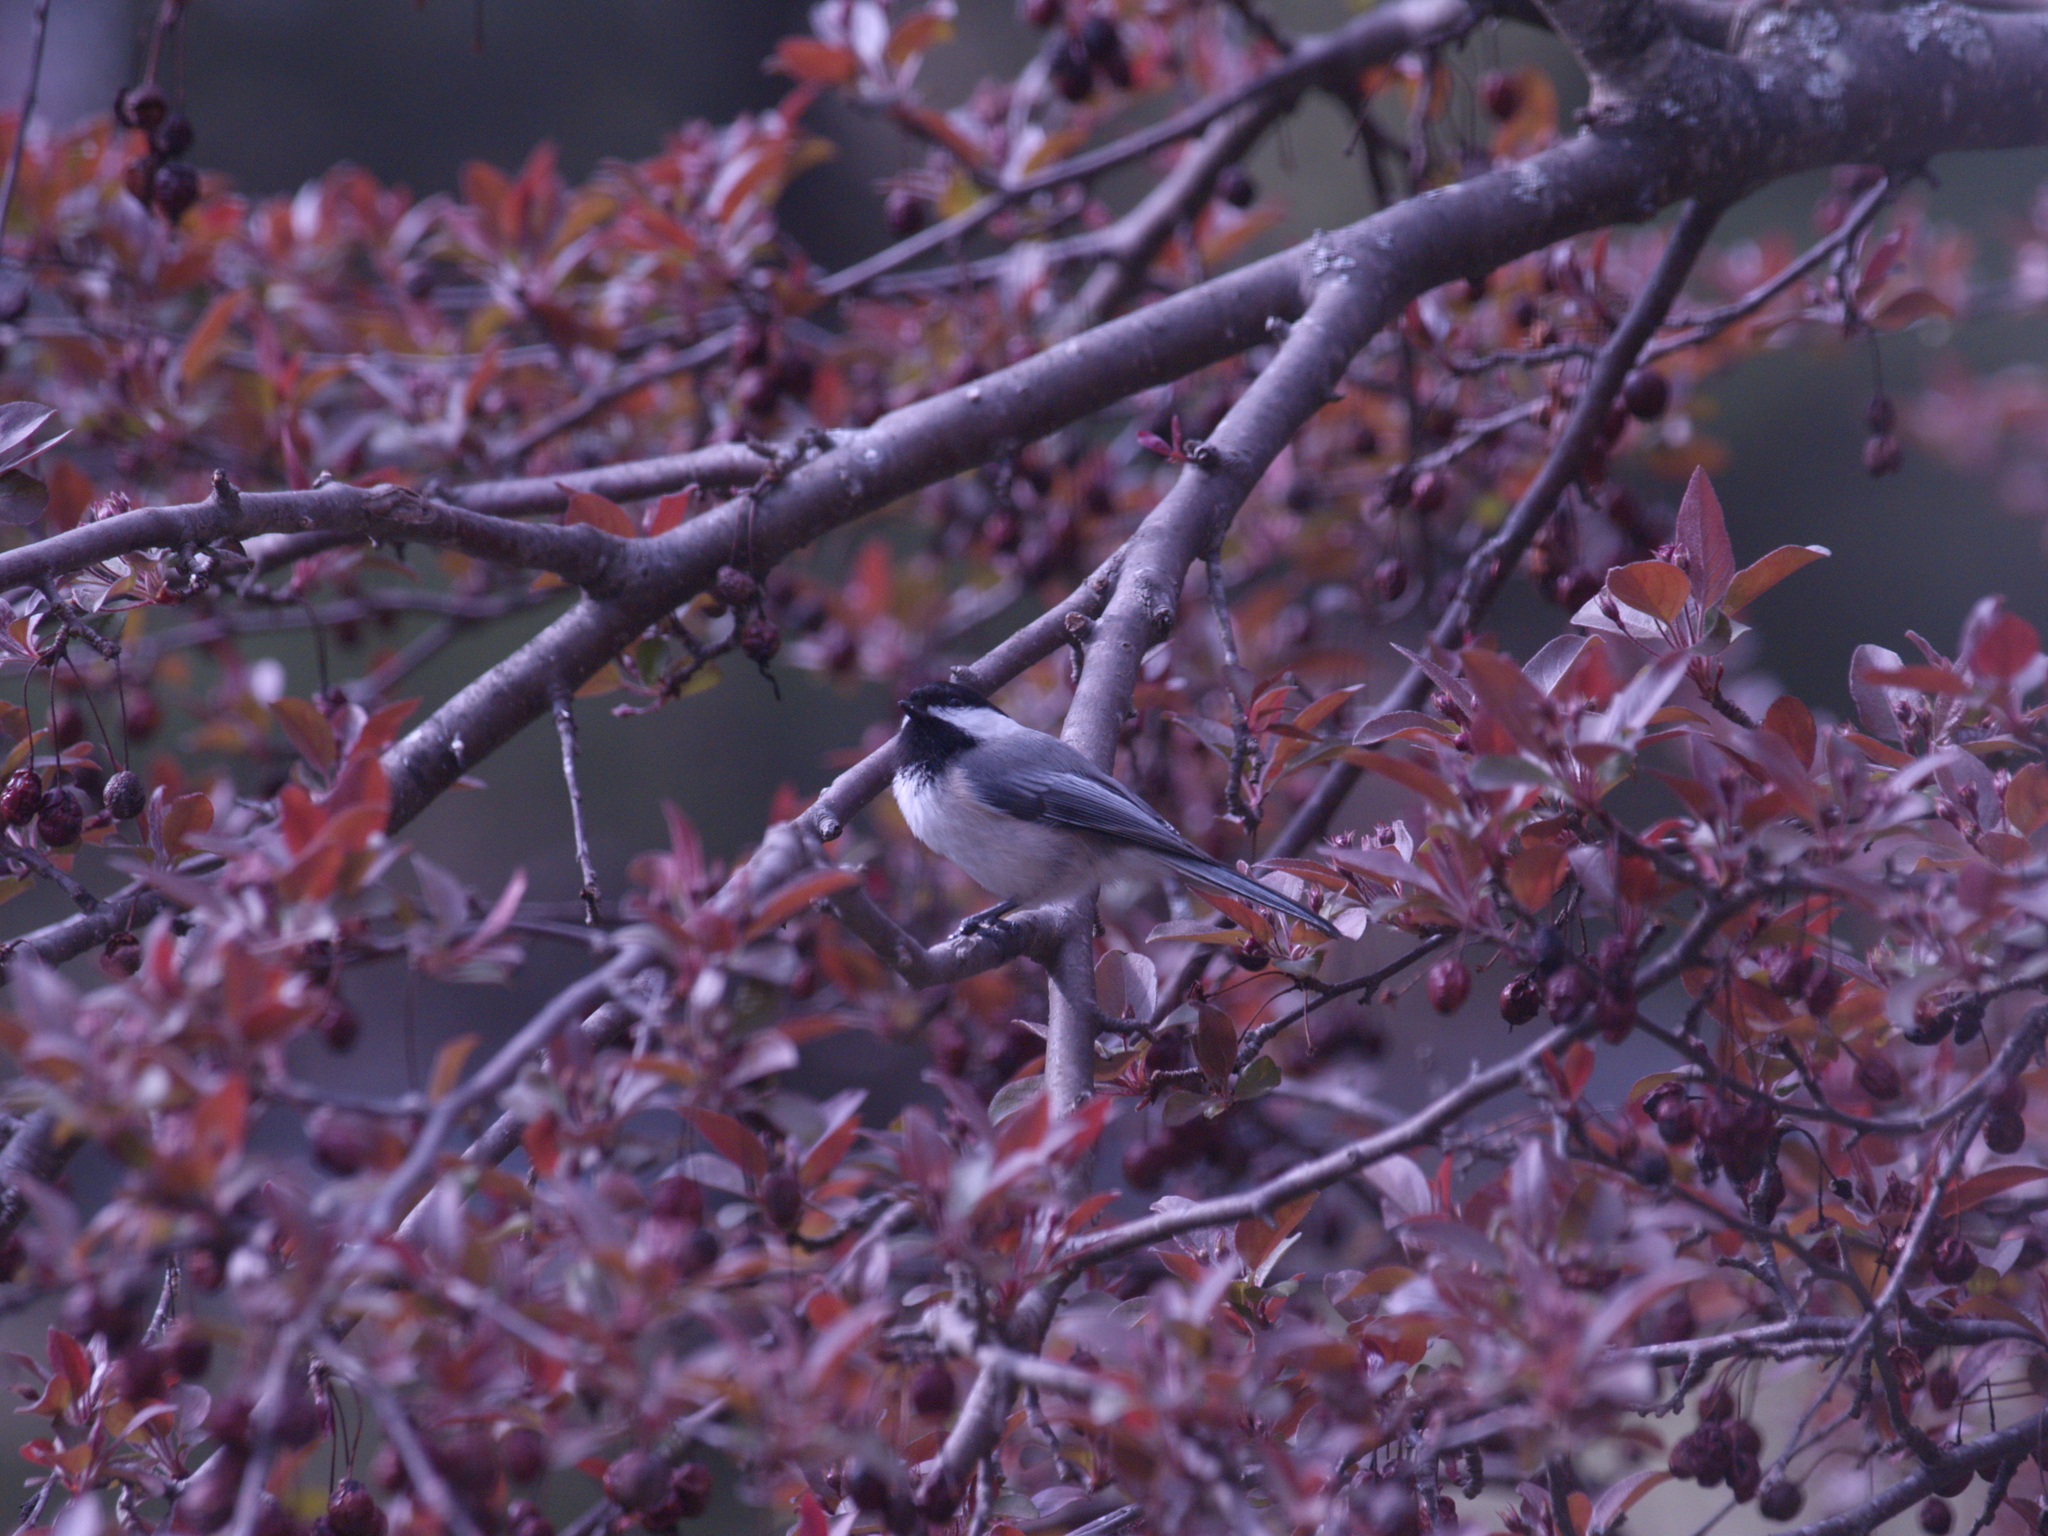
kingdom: Animalia
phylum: Chordata
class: Aves
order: Passeriformes
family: Paridae
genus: Poecile
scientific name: Poecile atricapillus
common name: Black-capped chickadee
